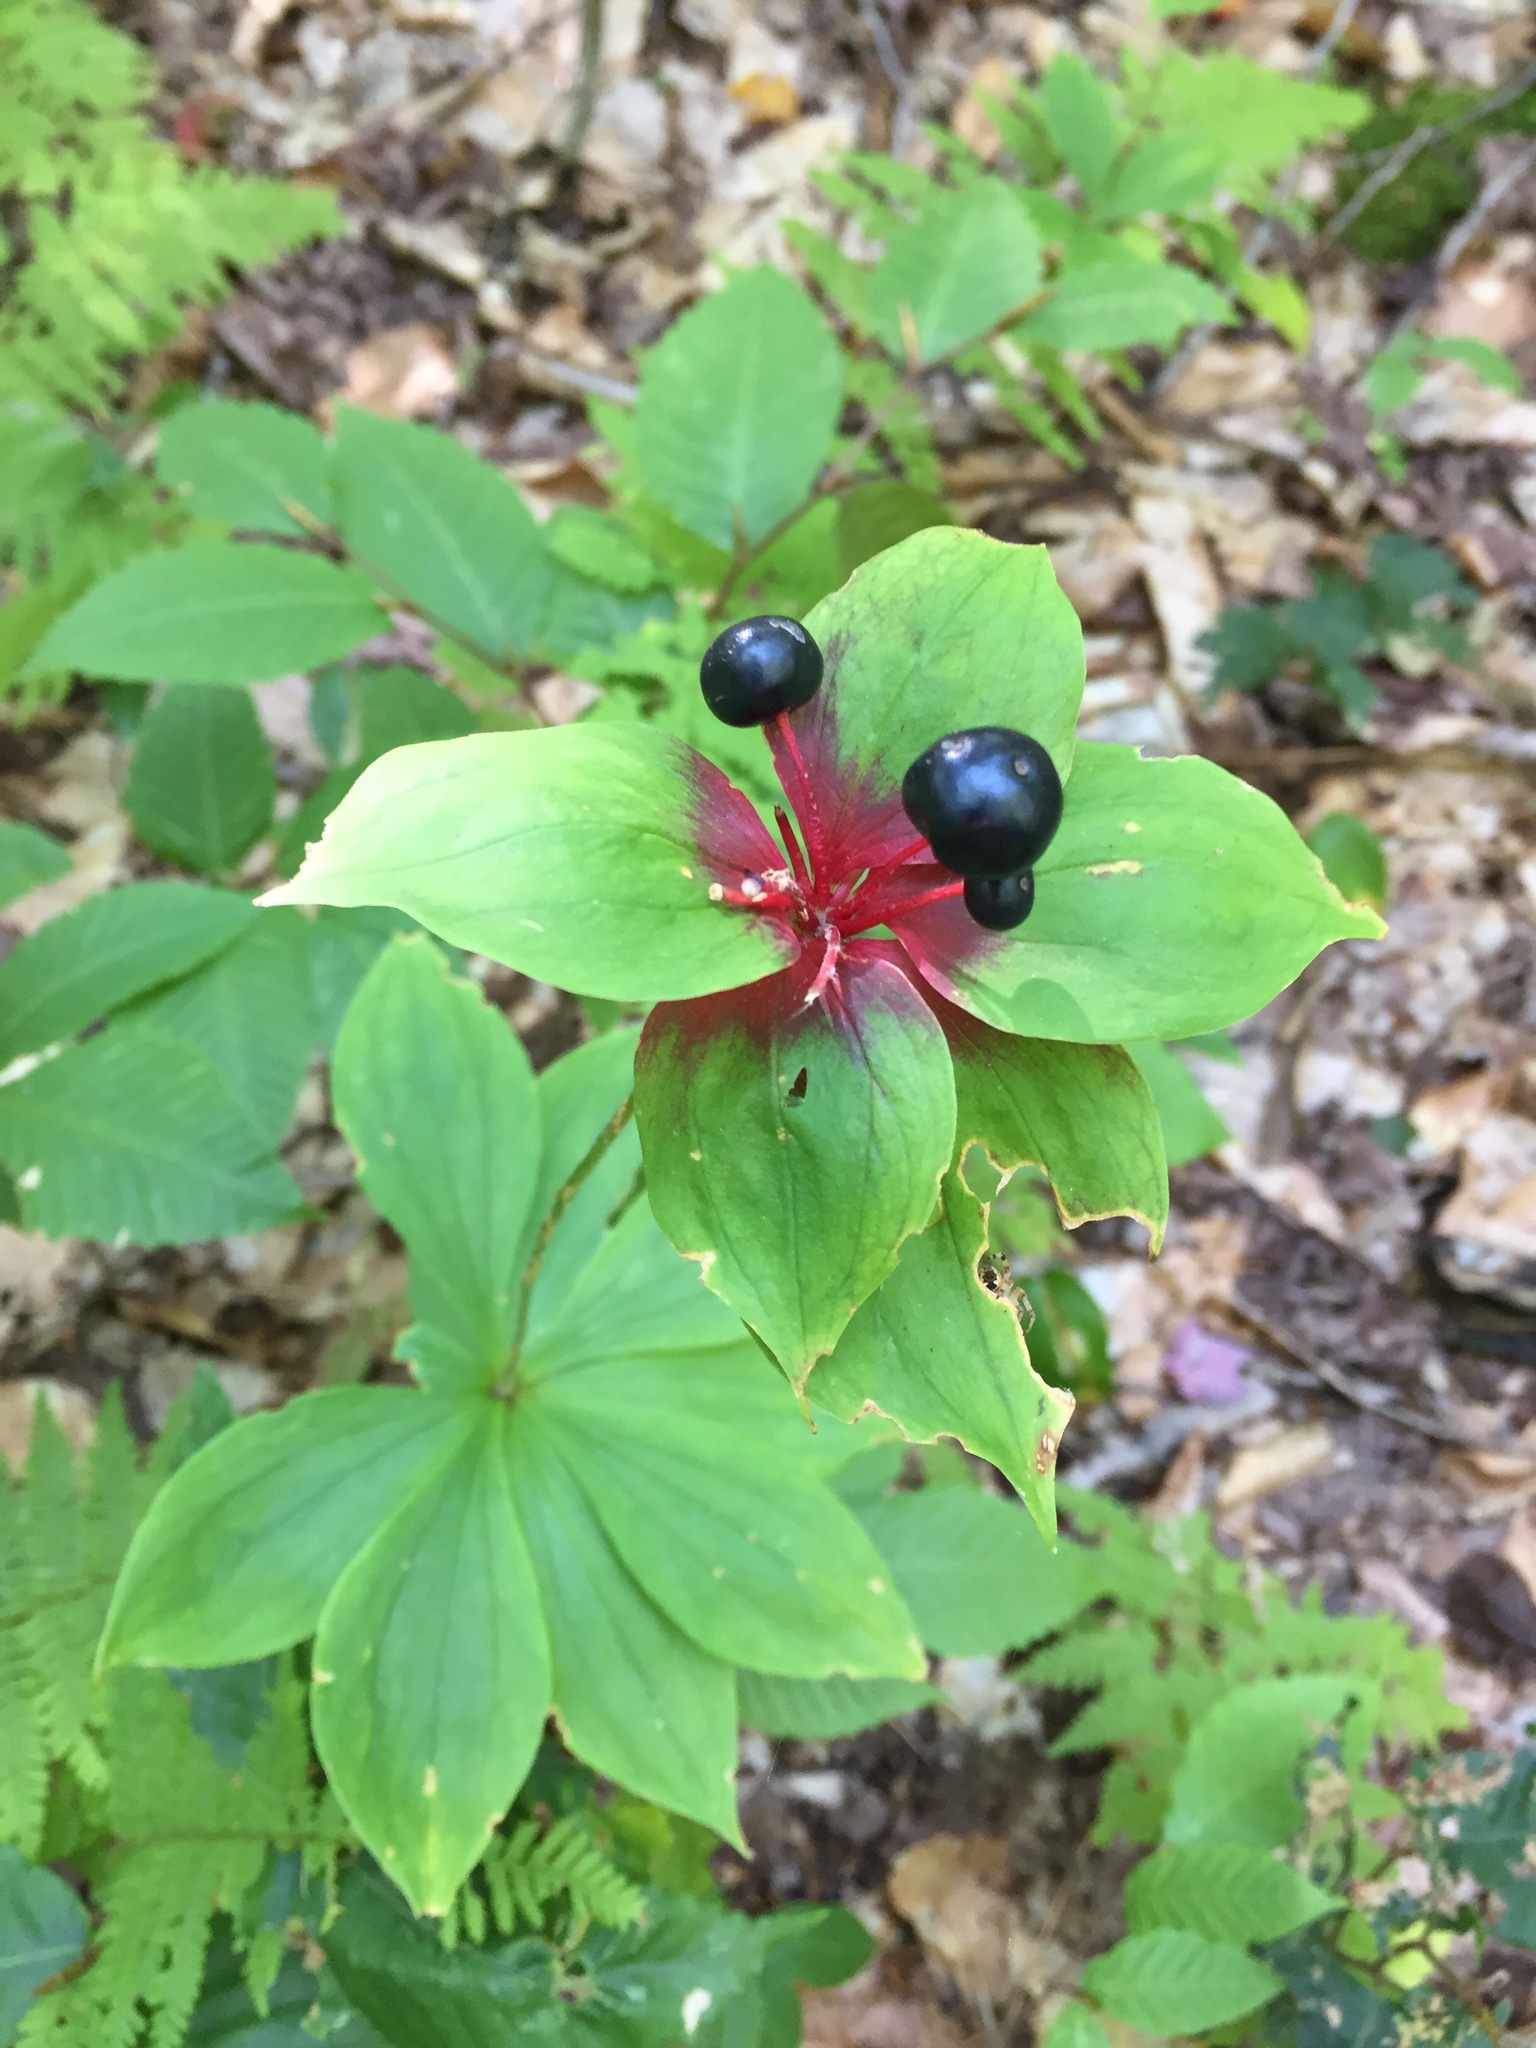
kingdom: Plantae
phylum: Tracheophyta
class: Liliopsida
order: Liliales
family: Liliaceae
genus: Medeola
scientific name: Medeola virginiana
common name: Indian cucumber-root
